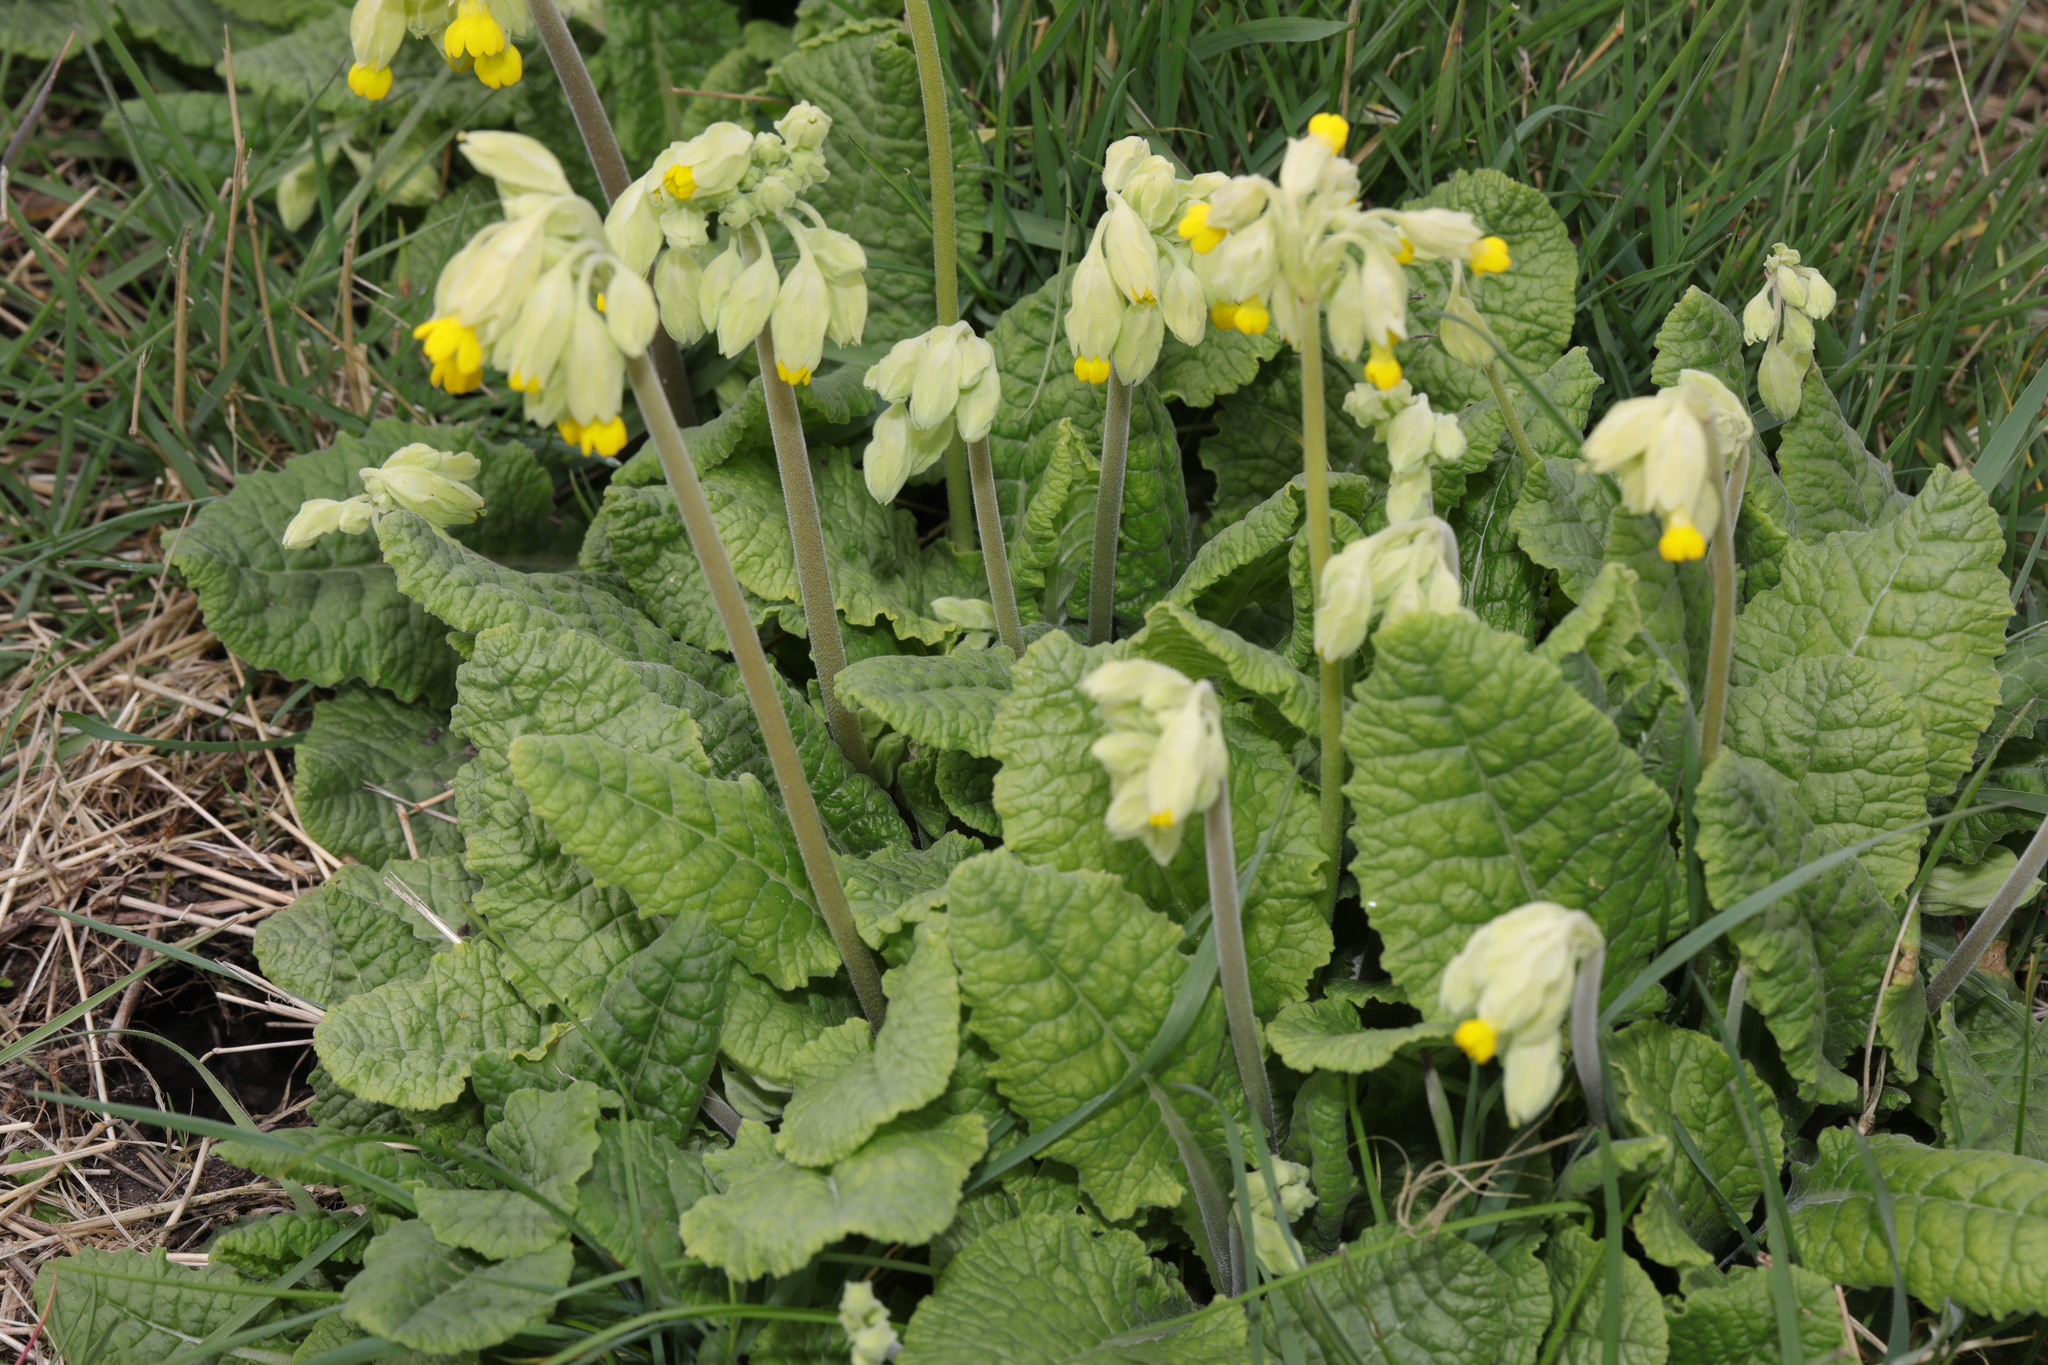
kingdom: Plantae
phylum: Tracheophyta
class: Magnoliopsida
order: Ericales
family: Primulaceae
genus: Primula
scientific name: Primula veris
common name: Cowslip
